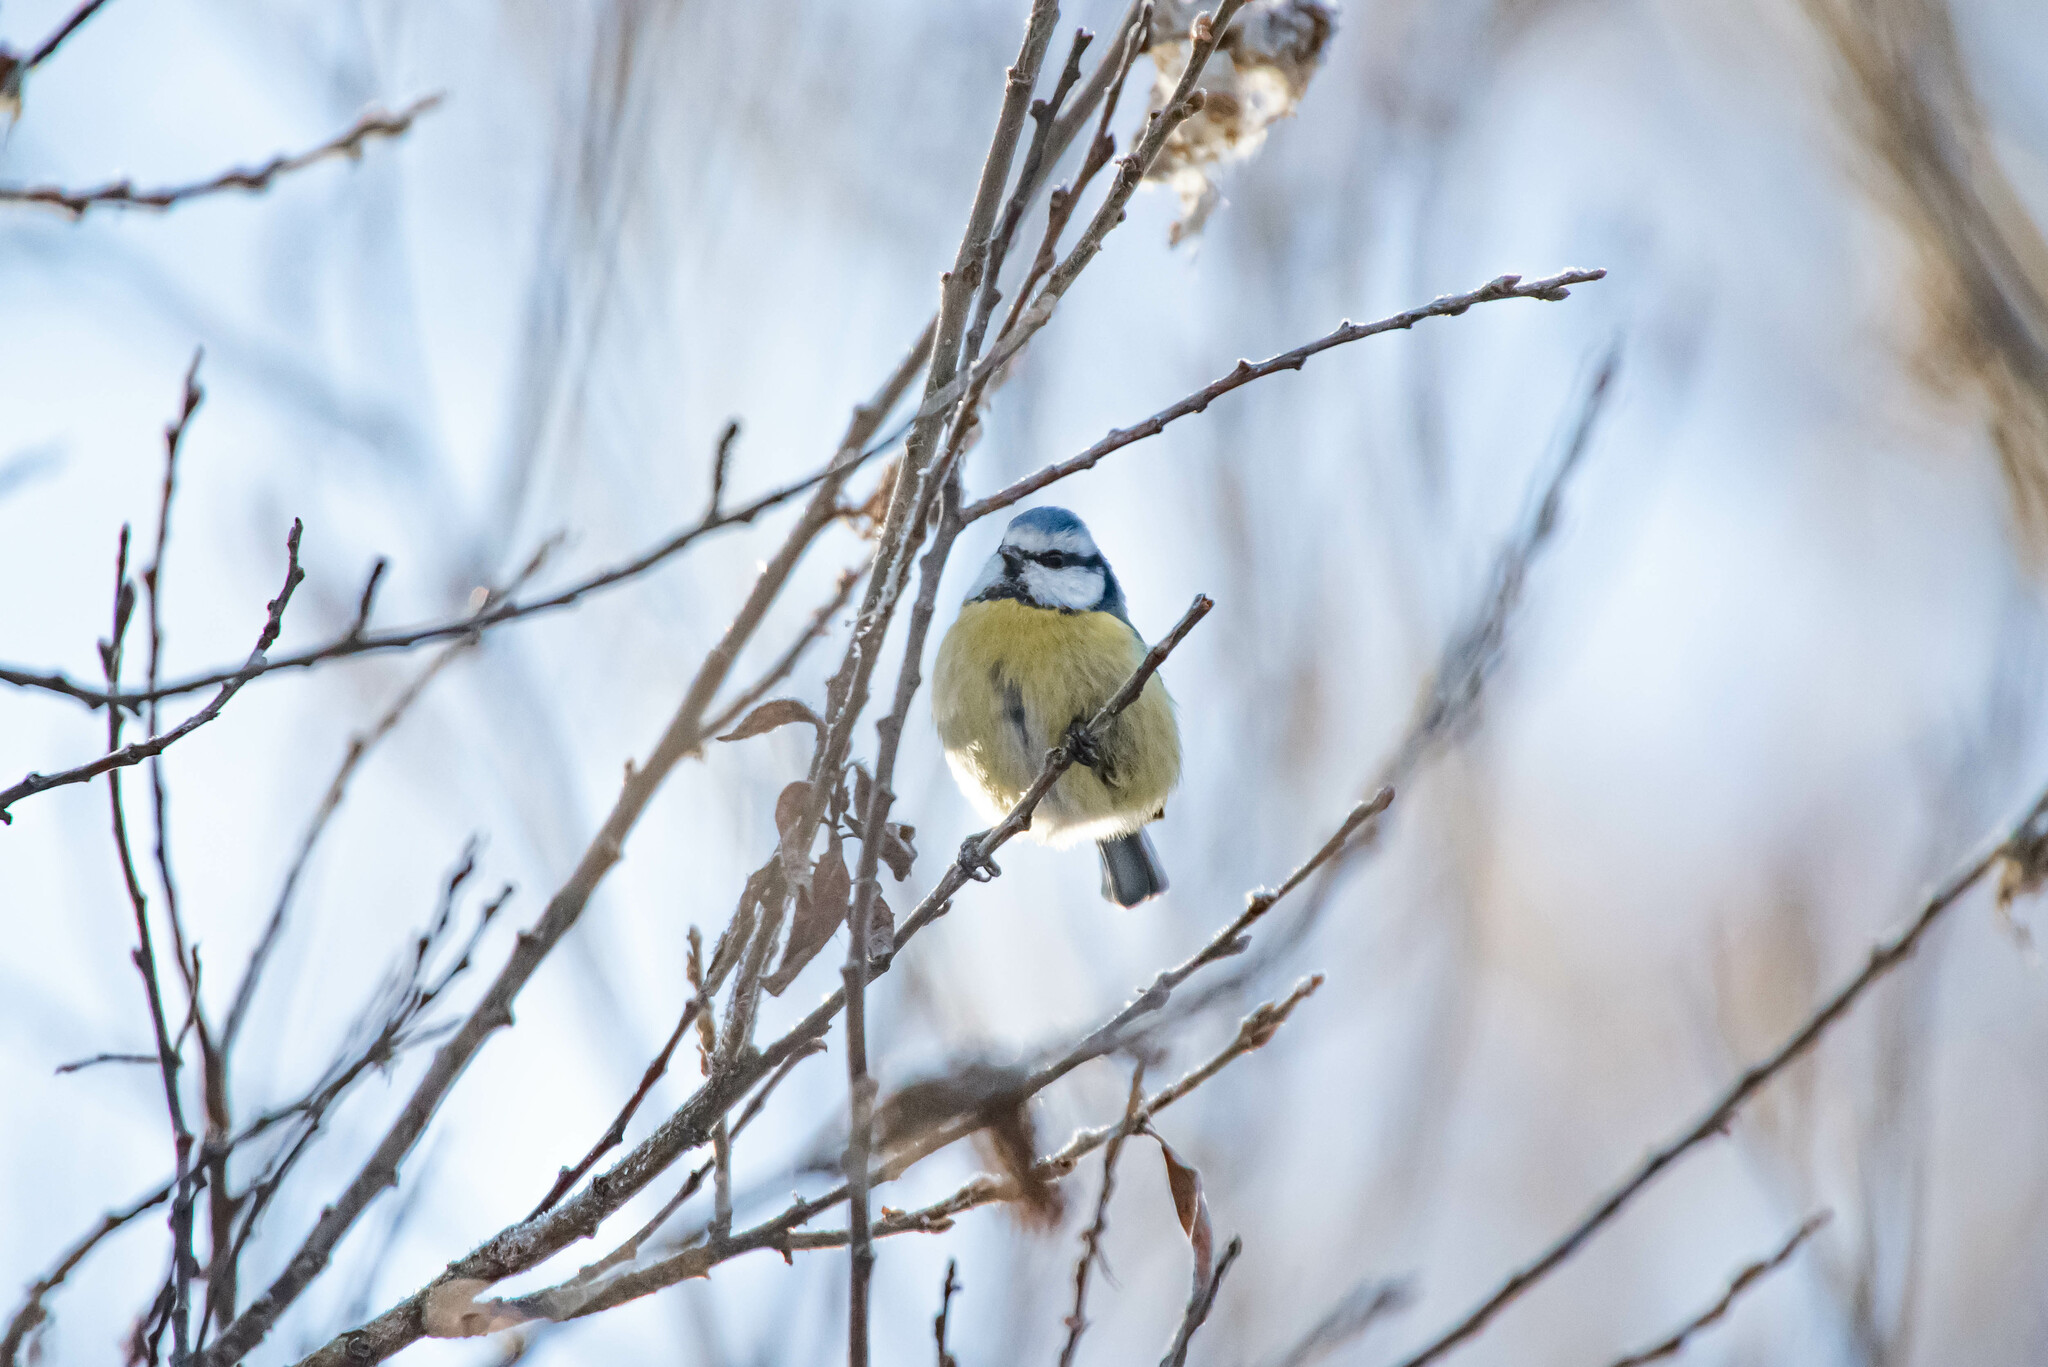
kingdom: Animalia
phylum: Chordata
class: Aves
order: Passeriformes
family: Paridae
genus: Cyanistes
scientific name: Cyanistes caeruleus
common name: Eurasian blue tit
